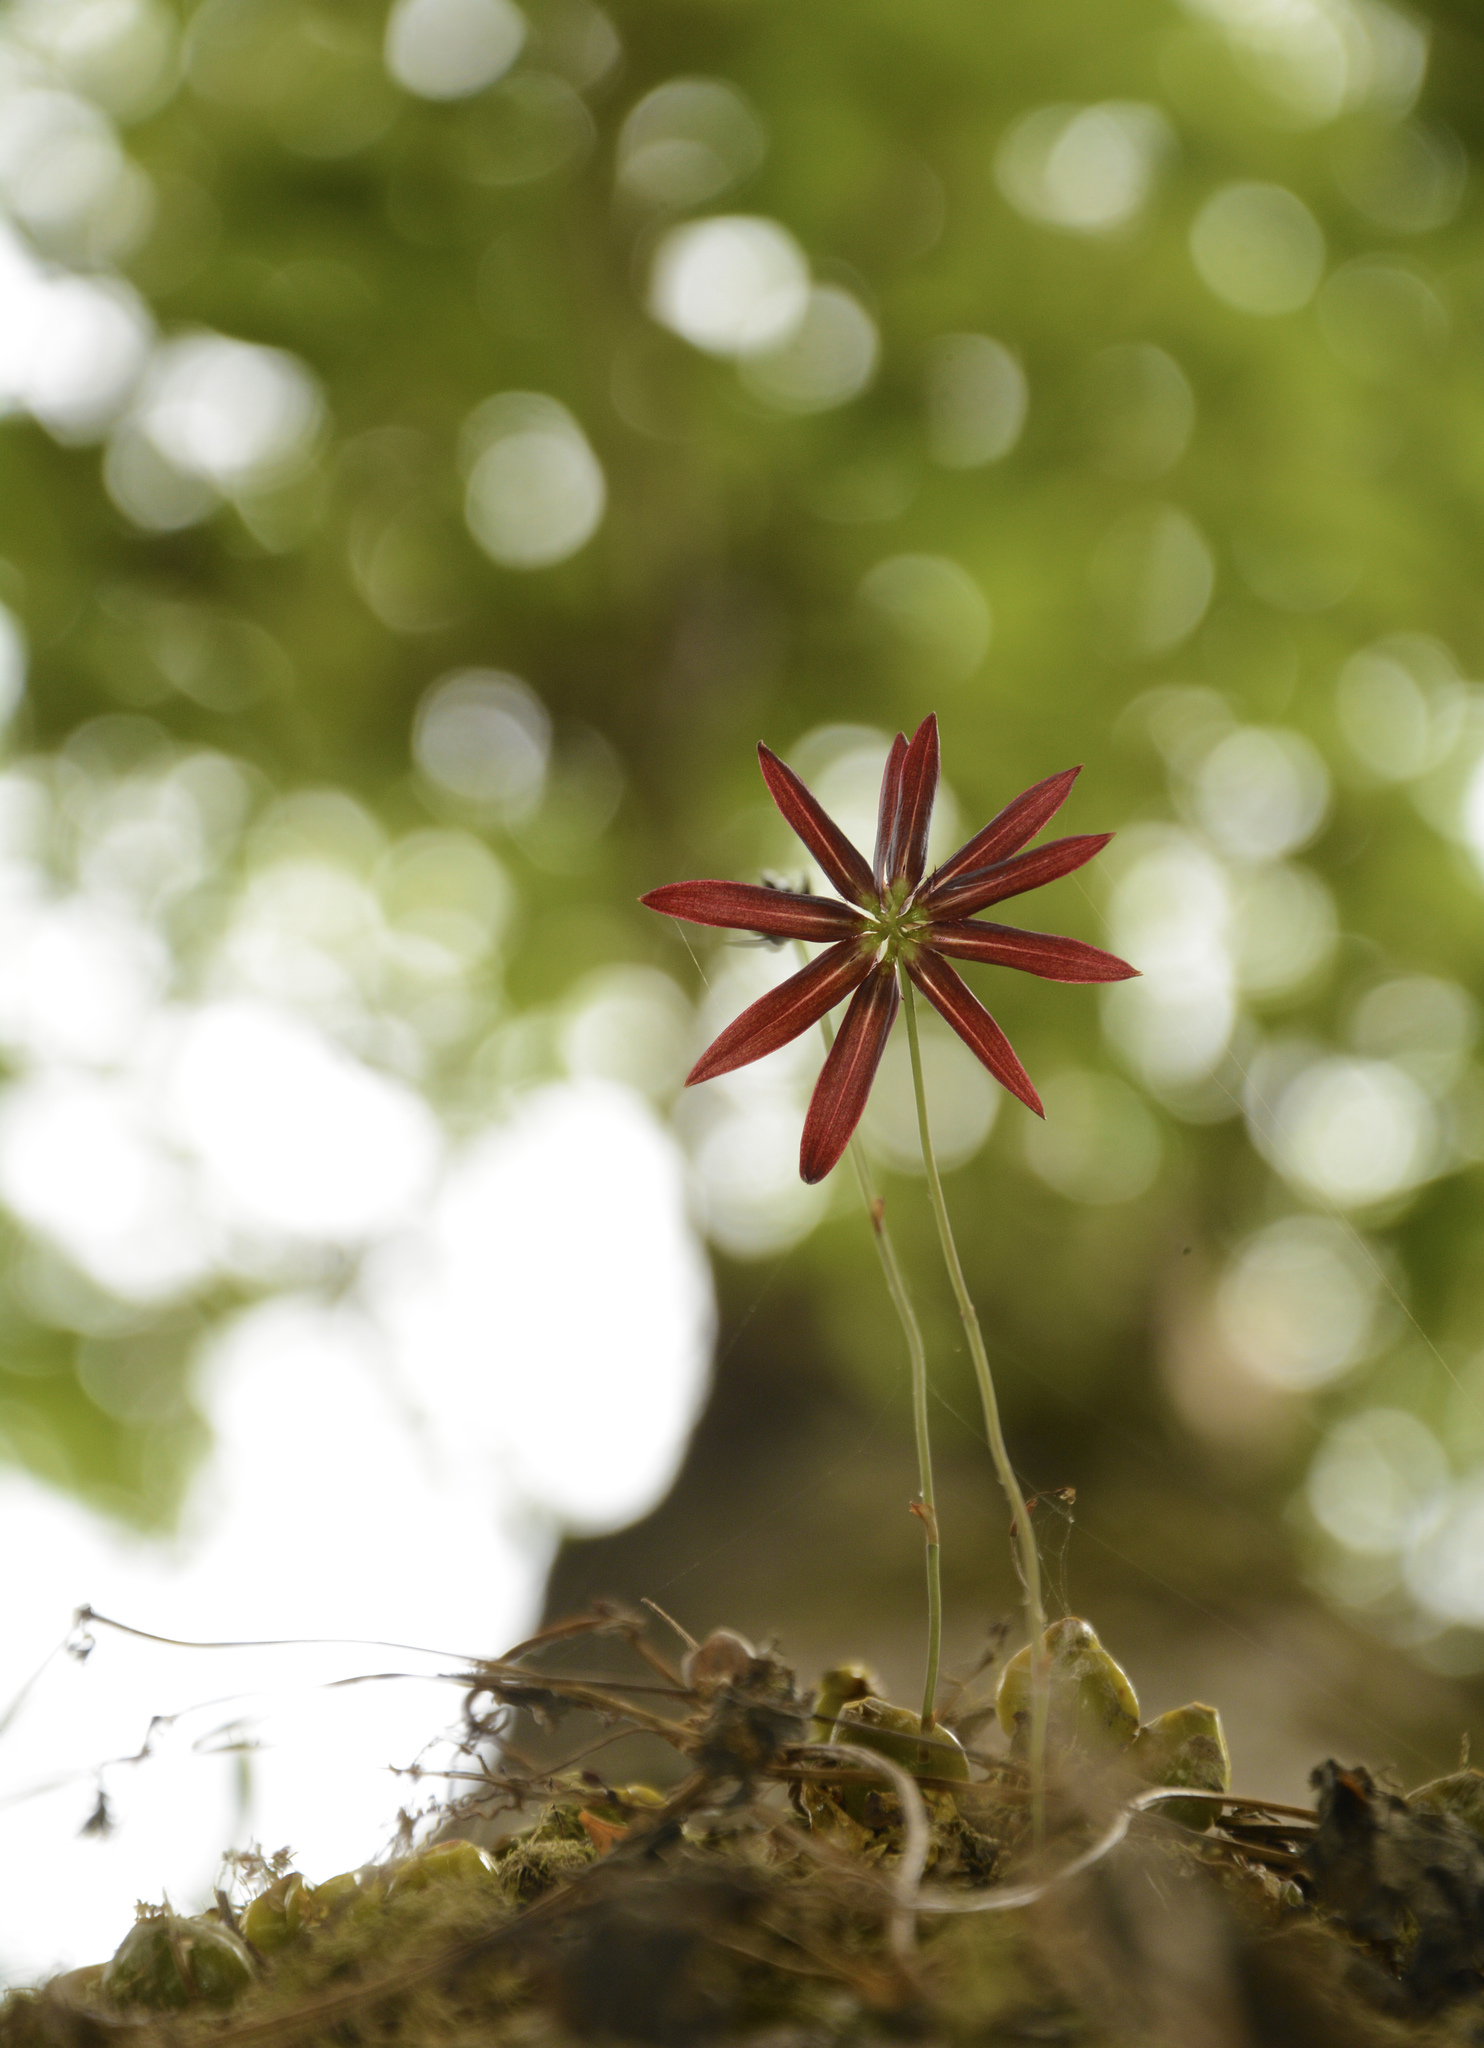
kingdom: Plantae
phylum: Tracheophyta
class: Liliopsida
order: Asparagales
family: Orchidaceae
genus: Bulbophyllum
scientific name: Bulbophyllum fimbriatum
